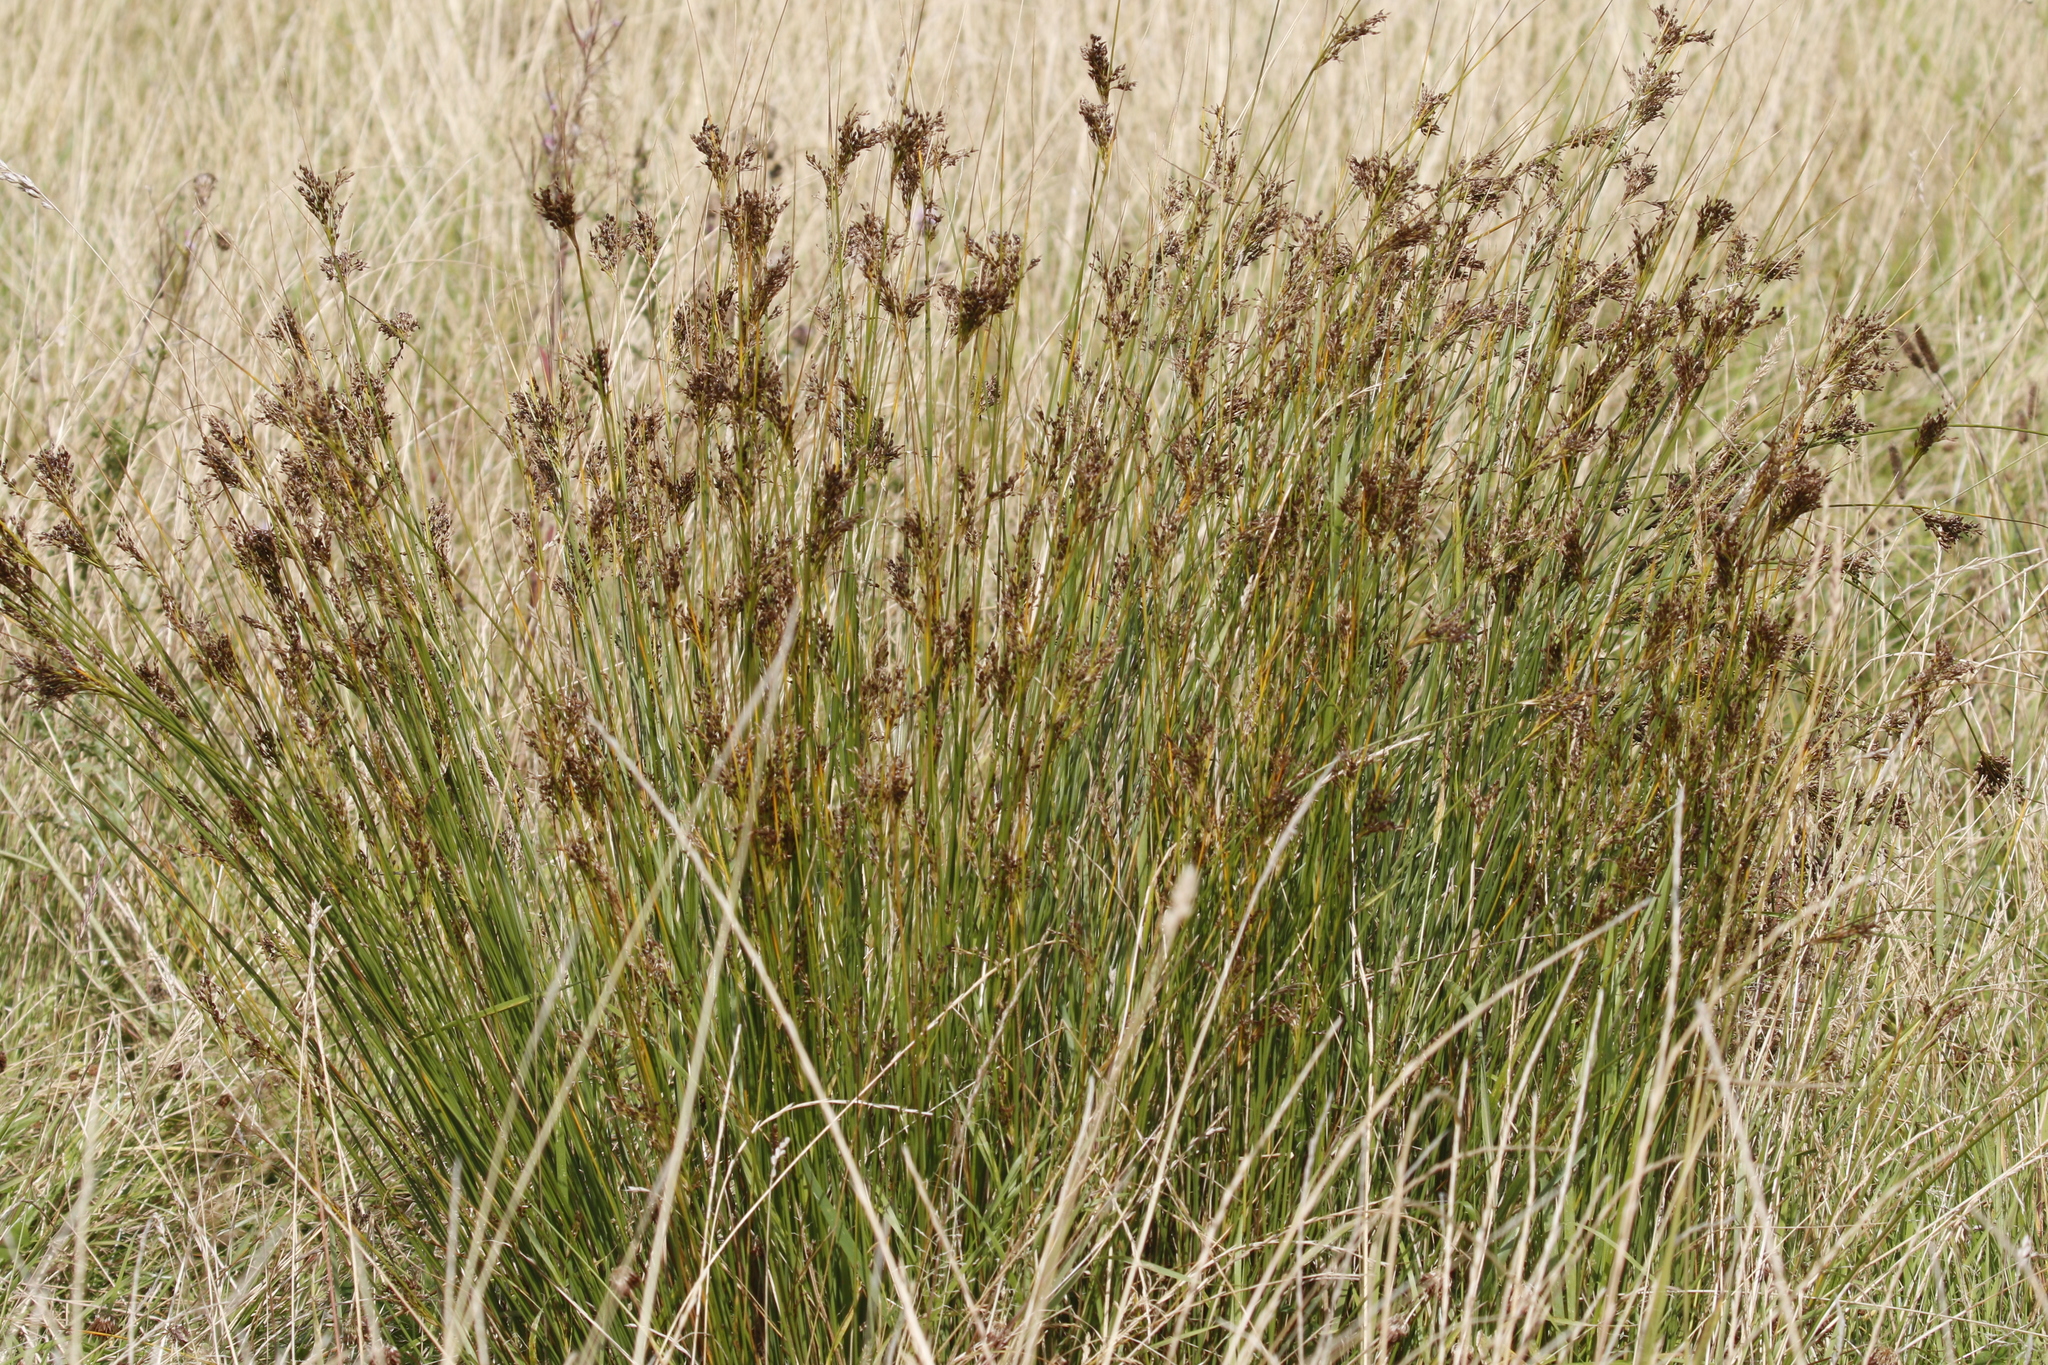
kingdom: Plantae
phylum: Tracheophyta
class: Liliopsida
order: Poales
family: Juncaceae
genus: Juncus
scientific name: Juncus inflexus
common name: Hard rush
